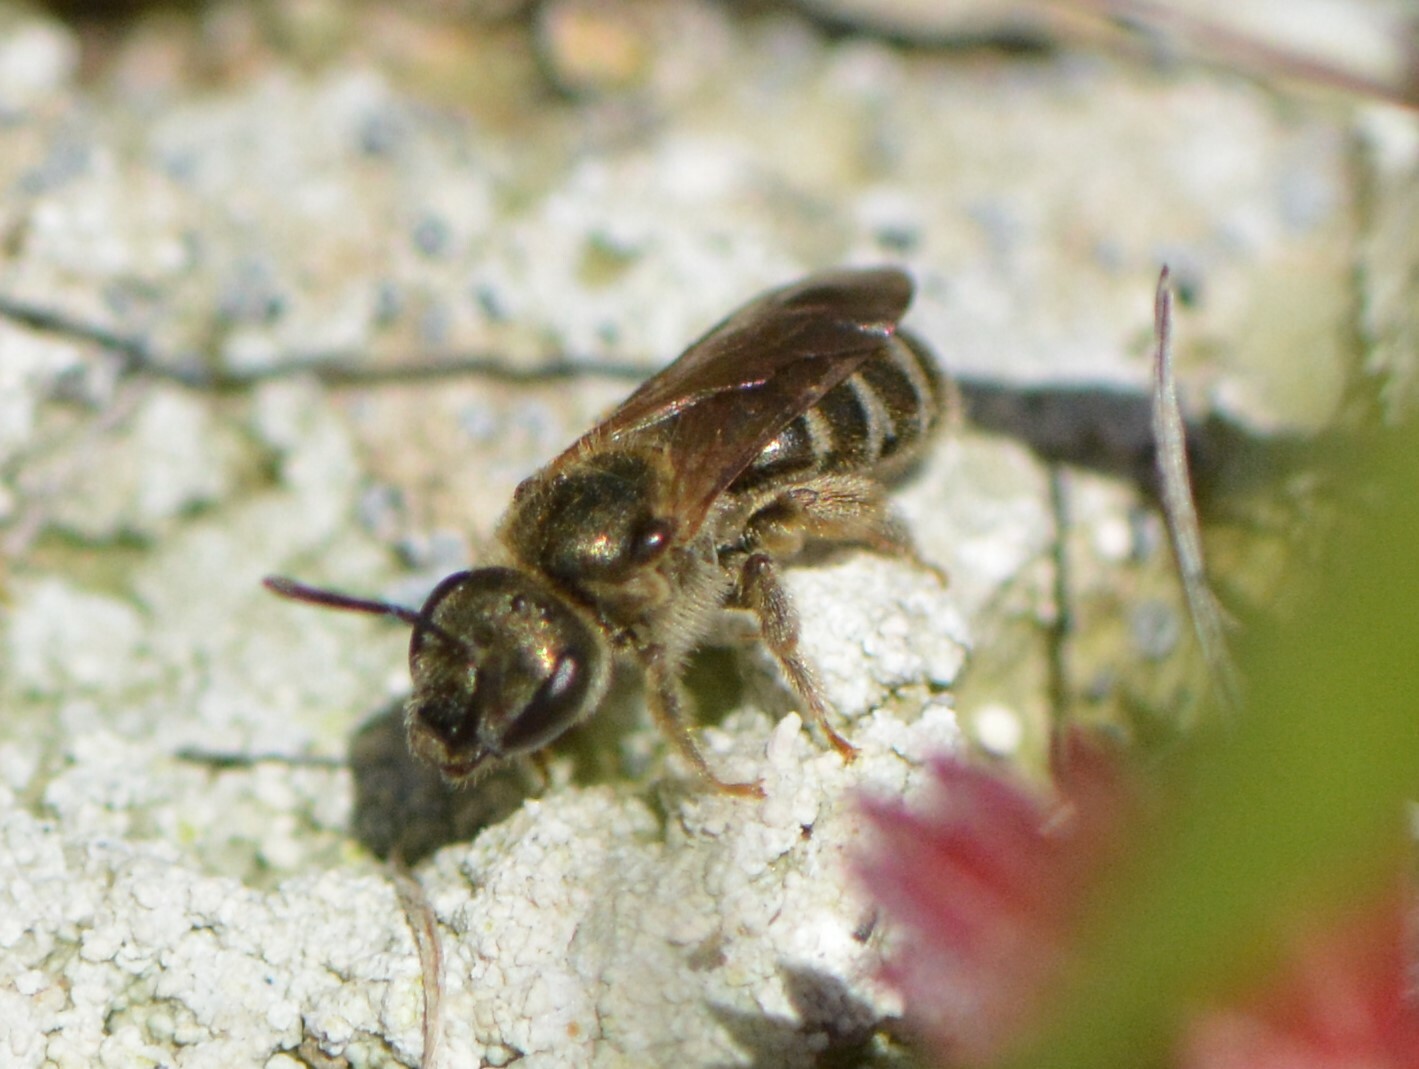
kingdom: Animalia
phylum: Arthropoda
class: Insecta
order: Hymenoptera
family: Halictidae
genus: Halictus
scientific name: Halictus confusus
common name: Southern bronze furrow bee
